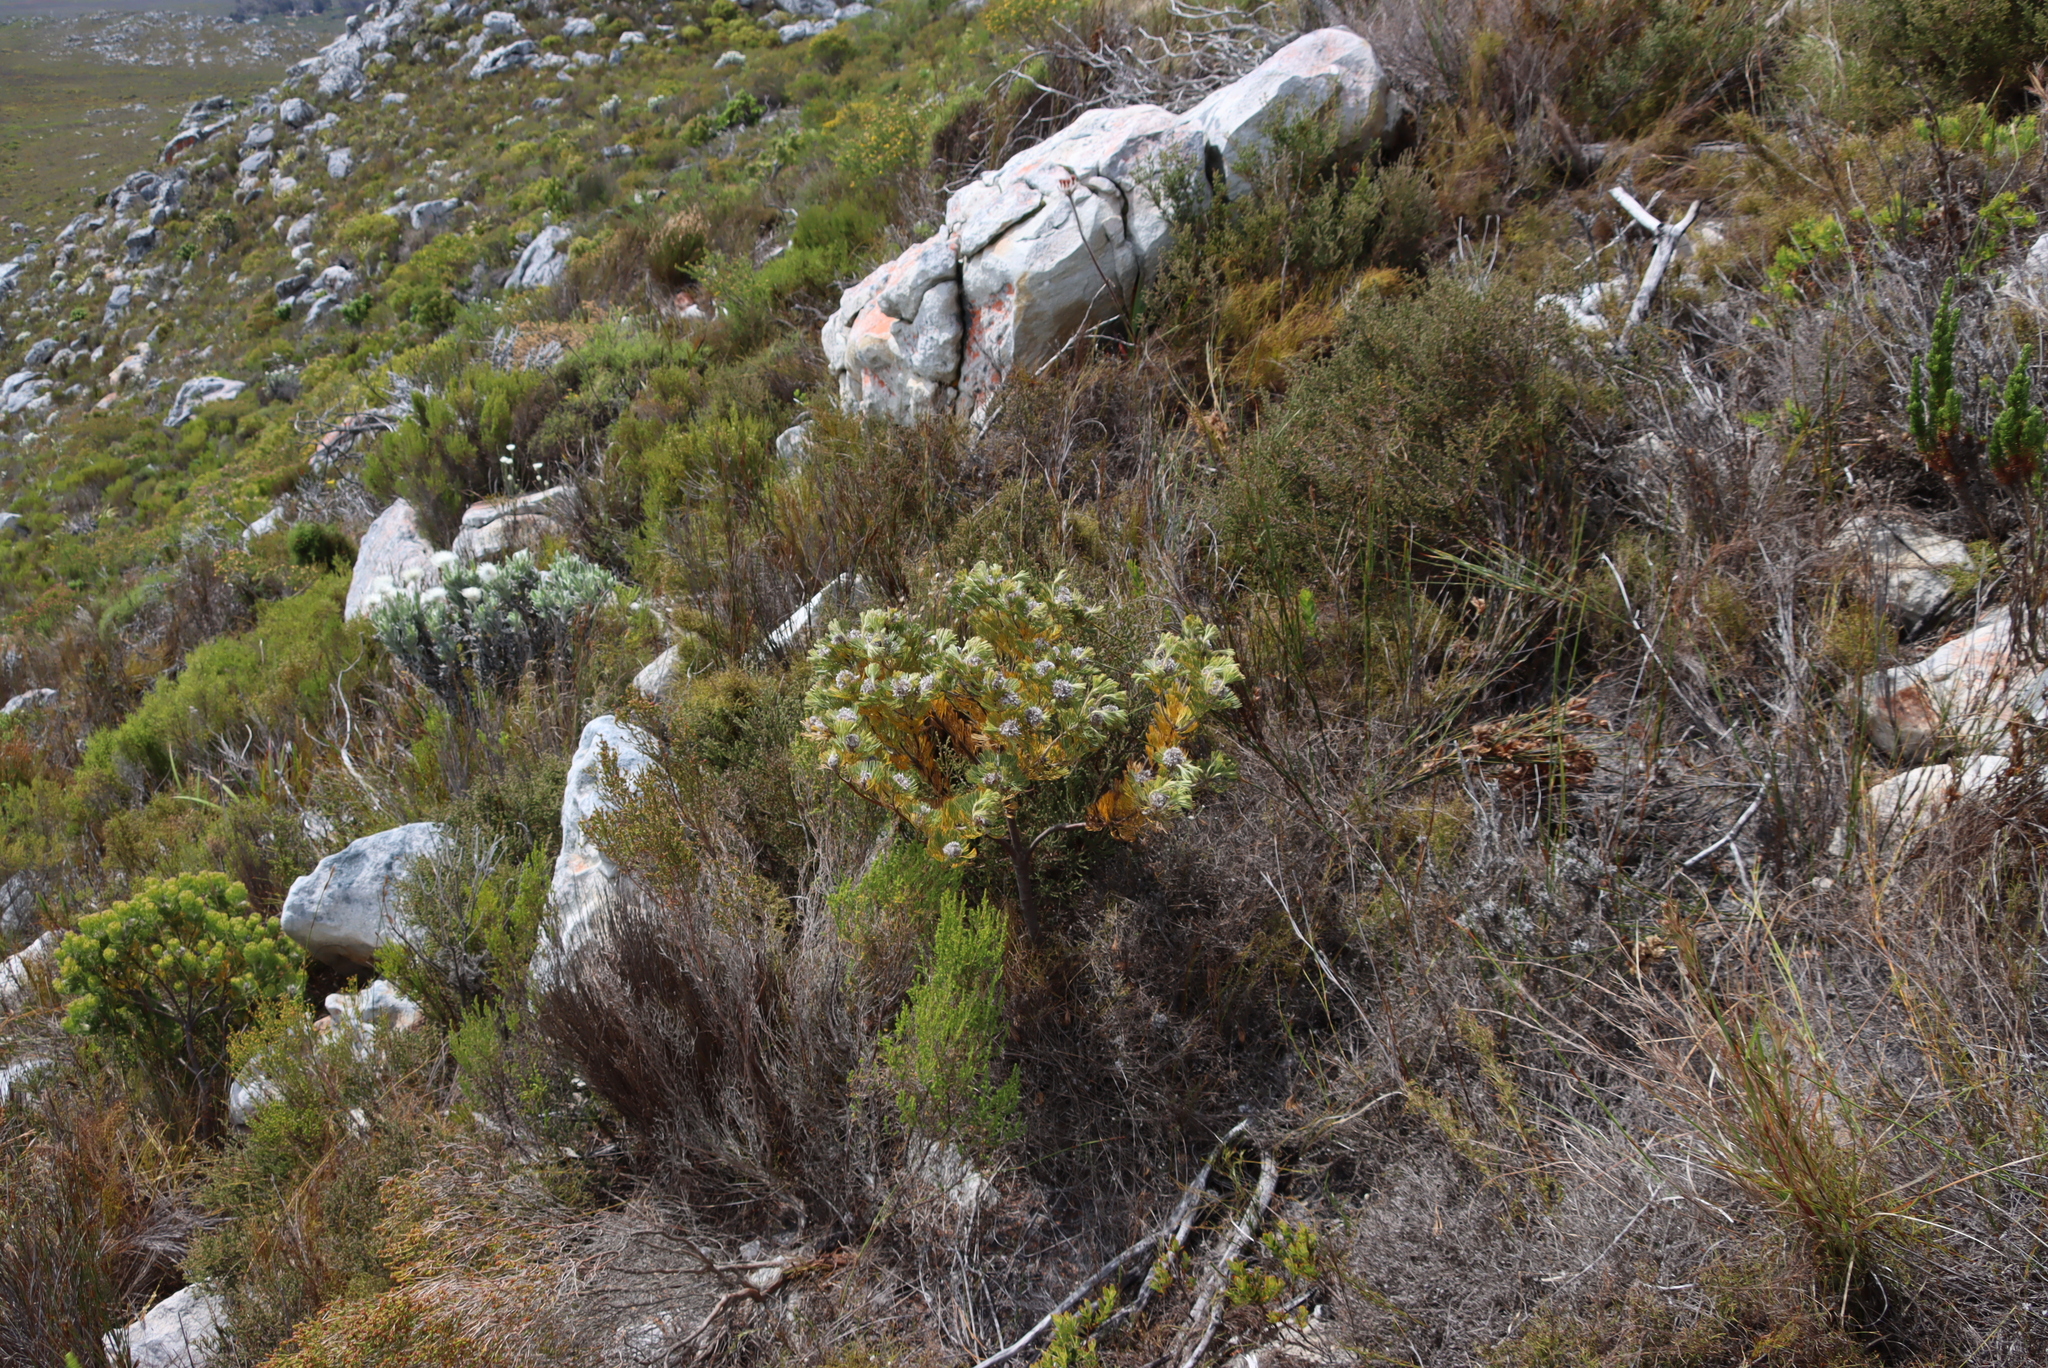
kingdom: Plantae
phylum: Tracheophyta
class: Magnoliopsida
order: Proteales
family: Proteaceae
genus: Serruria
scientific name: Serruria villosa
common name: Golden spiderhead
